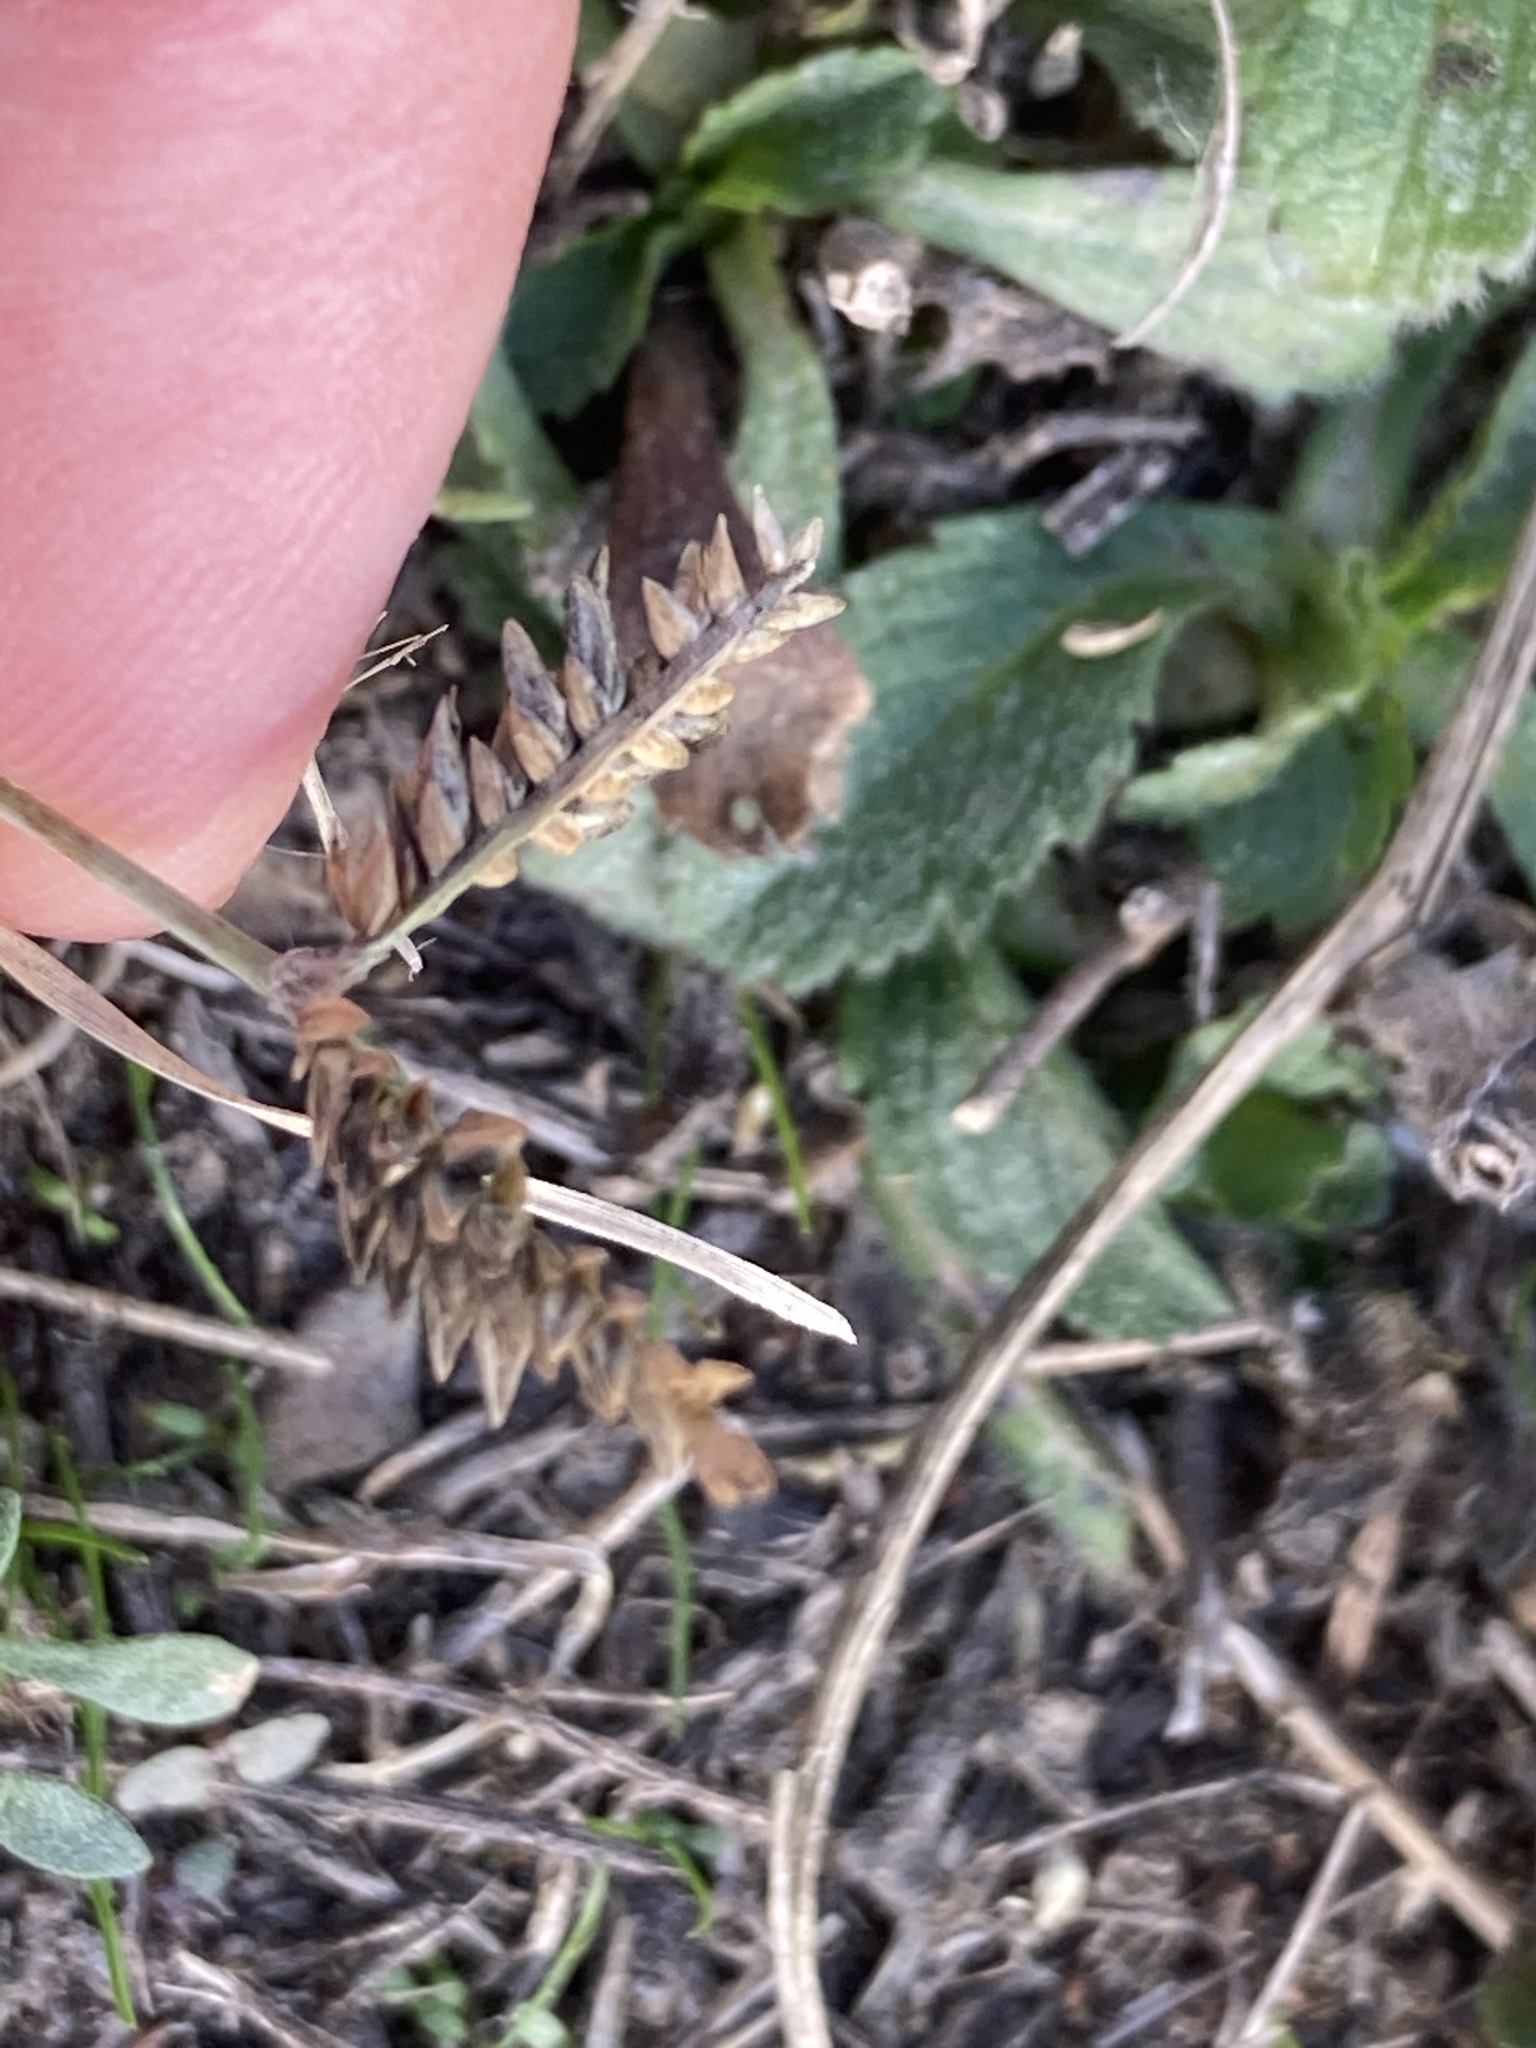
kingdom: Plantae
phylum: Tracheophyta
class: Liliopsida
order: Poales
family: Poaceae
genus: Eleusine
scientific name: Eleusine tristachya
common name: American yard-grass
